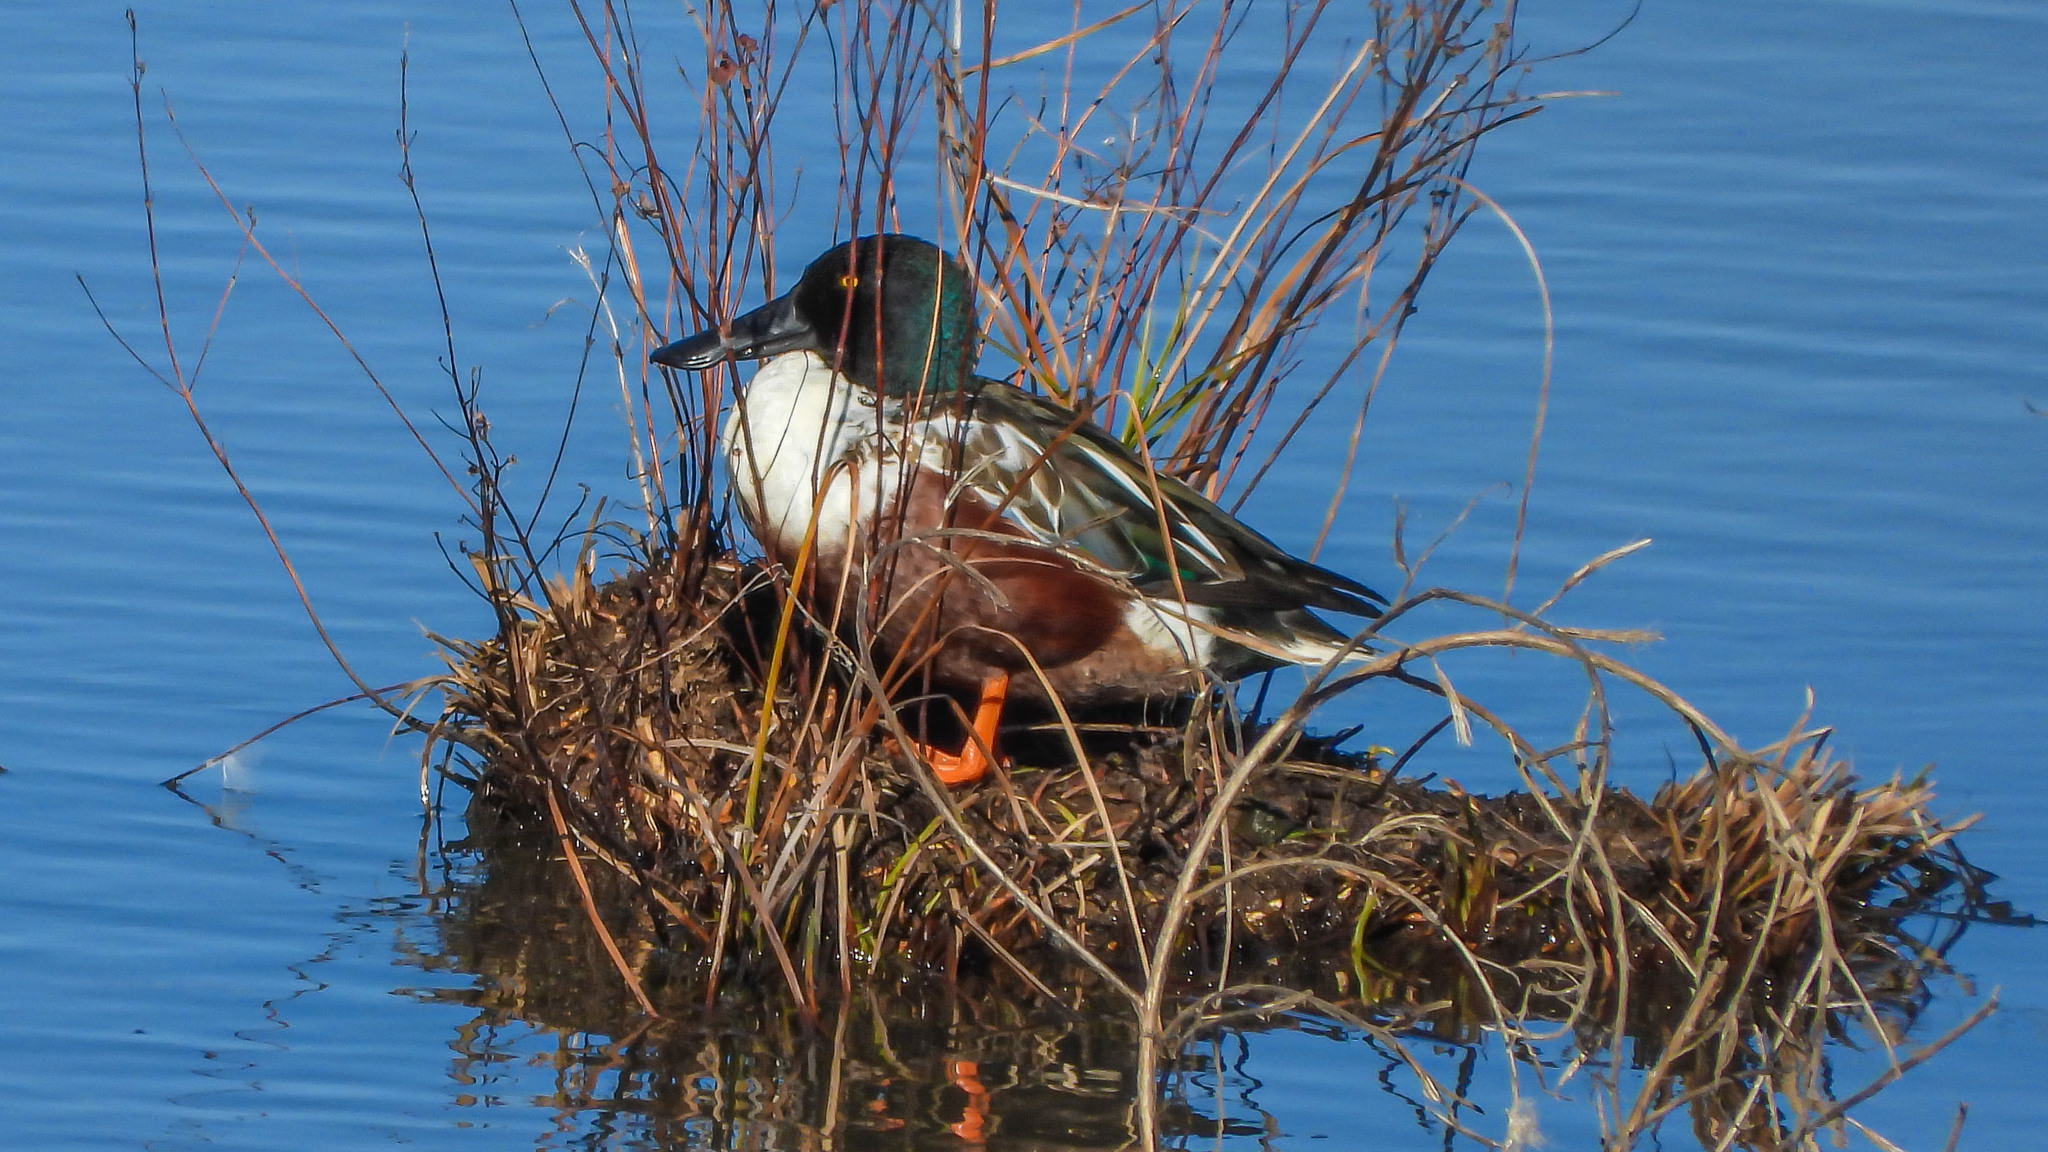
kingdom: Animalia
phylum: Chordata
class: Aves
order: Anseriformes
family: Anatidae
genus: Spatula
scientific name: Spatula clypeata
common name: Northern shoveler
